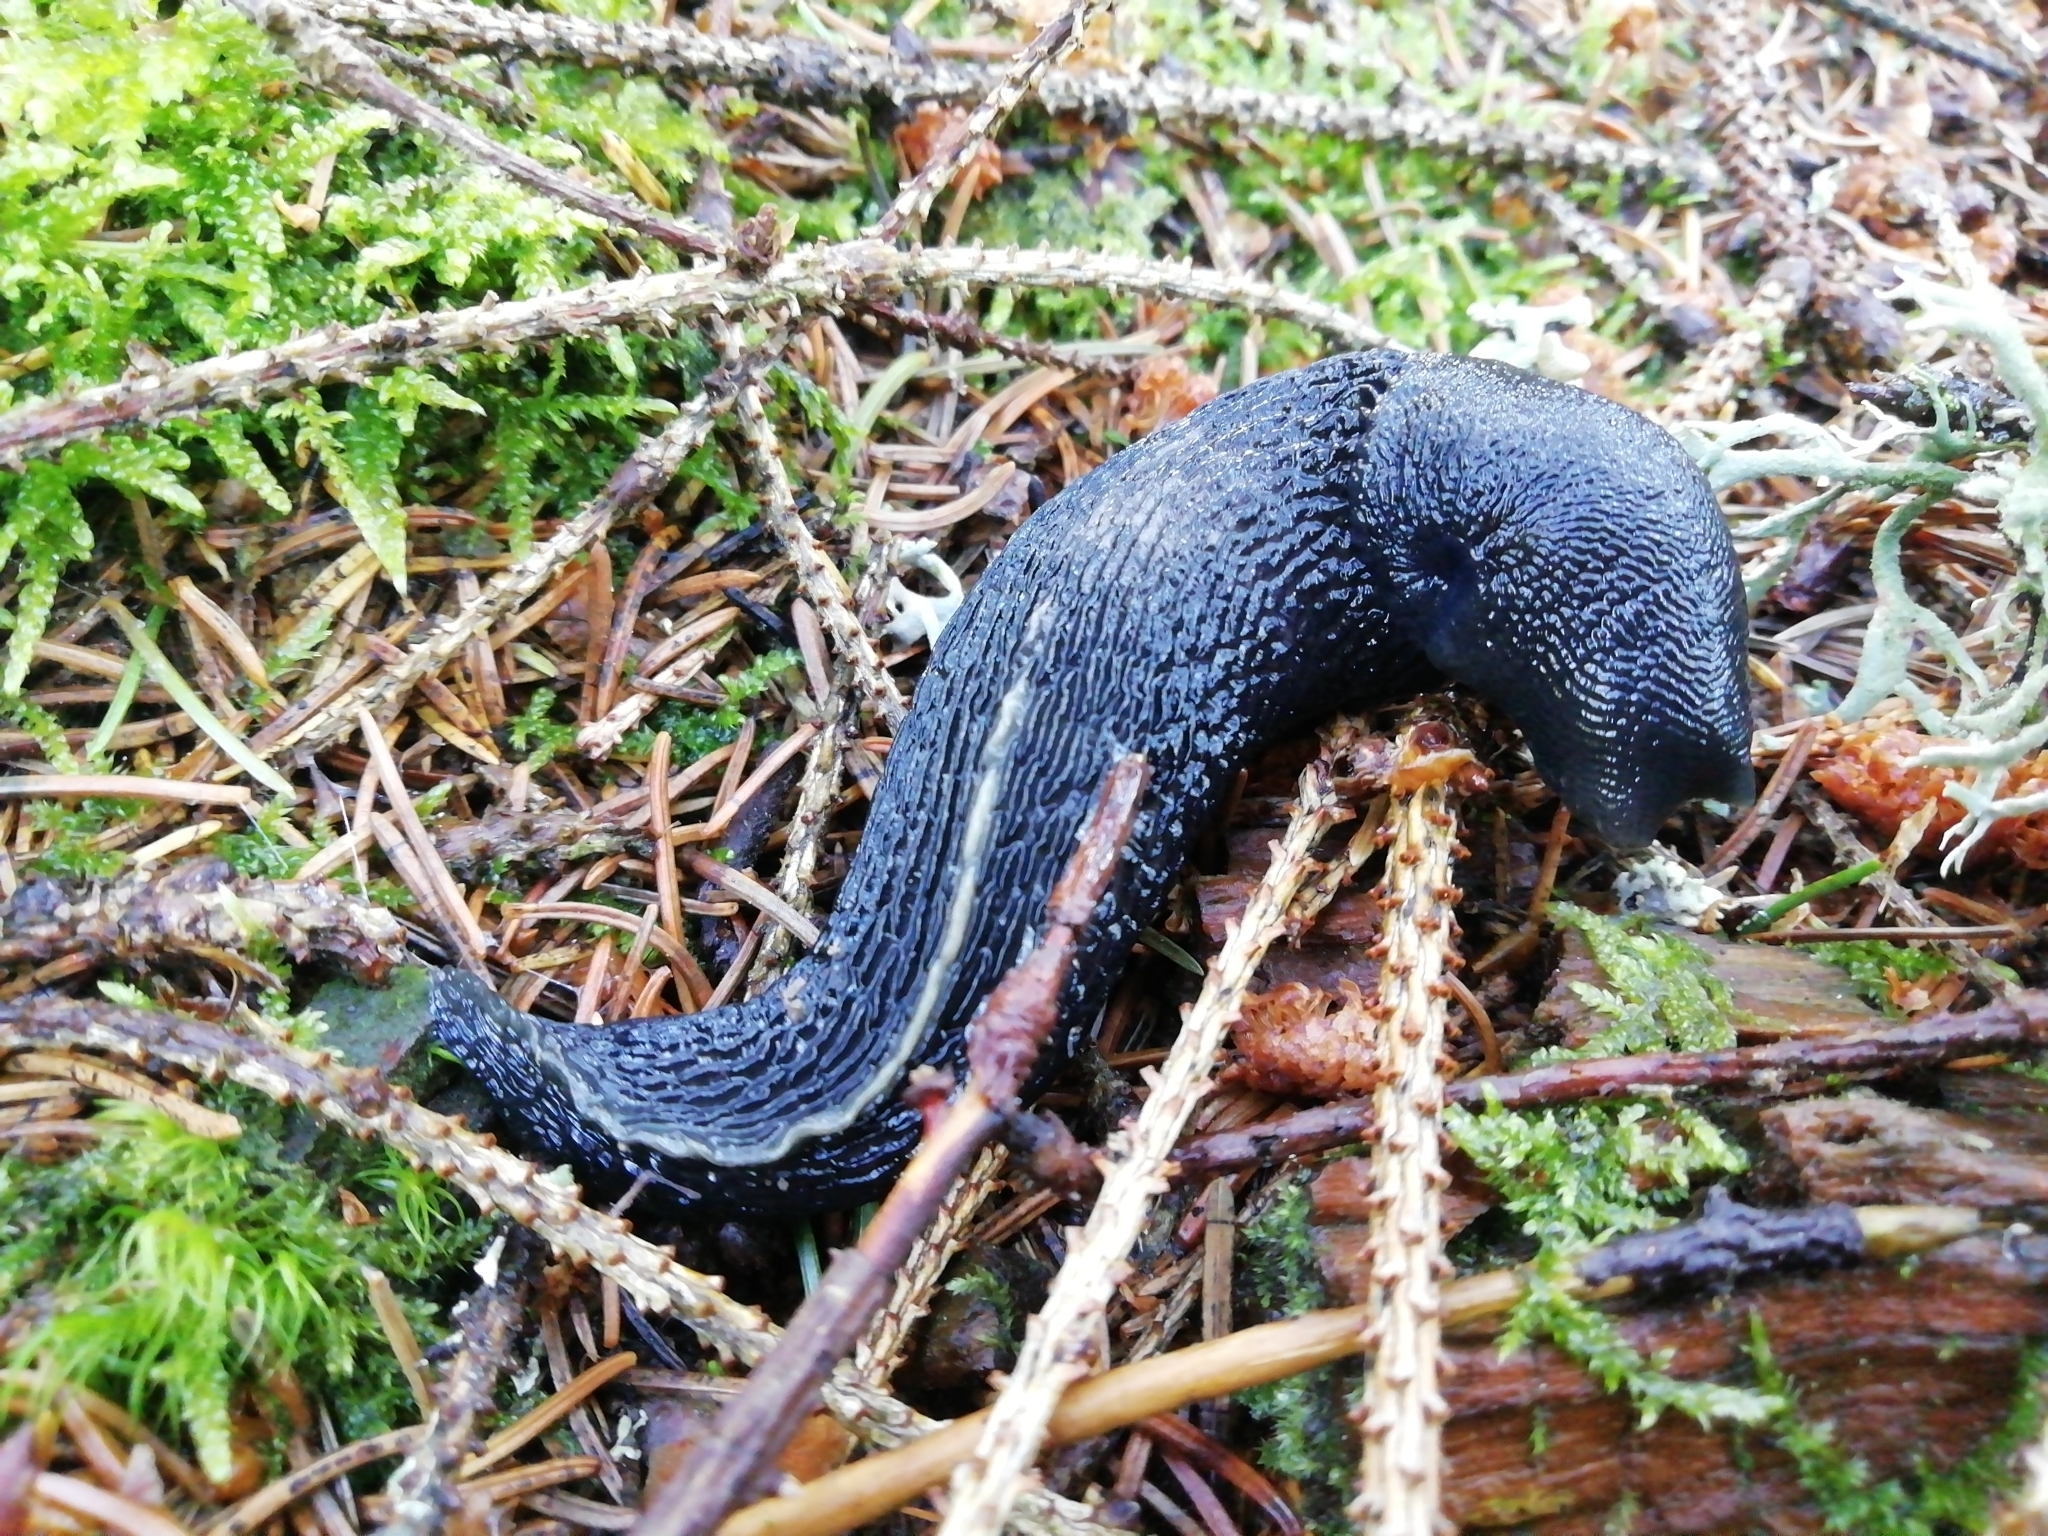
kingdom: Animalia
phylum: Mollusca
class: Gastropoda
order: Stylommatophora
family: Limacidae
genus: Limax
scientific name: Limax cinereoniger
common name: Ash-black slug
